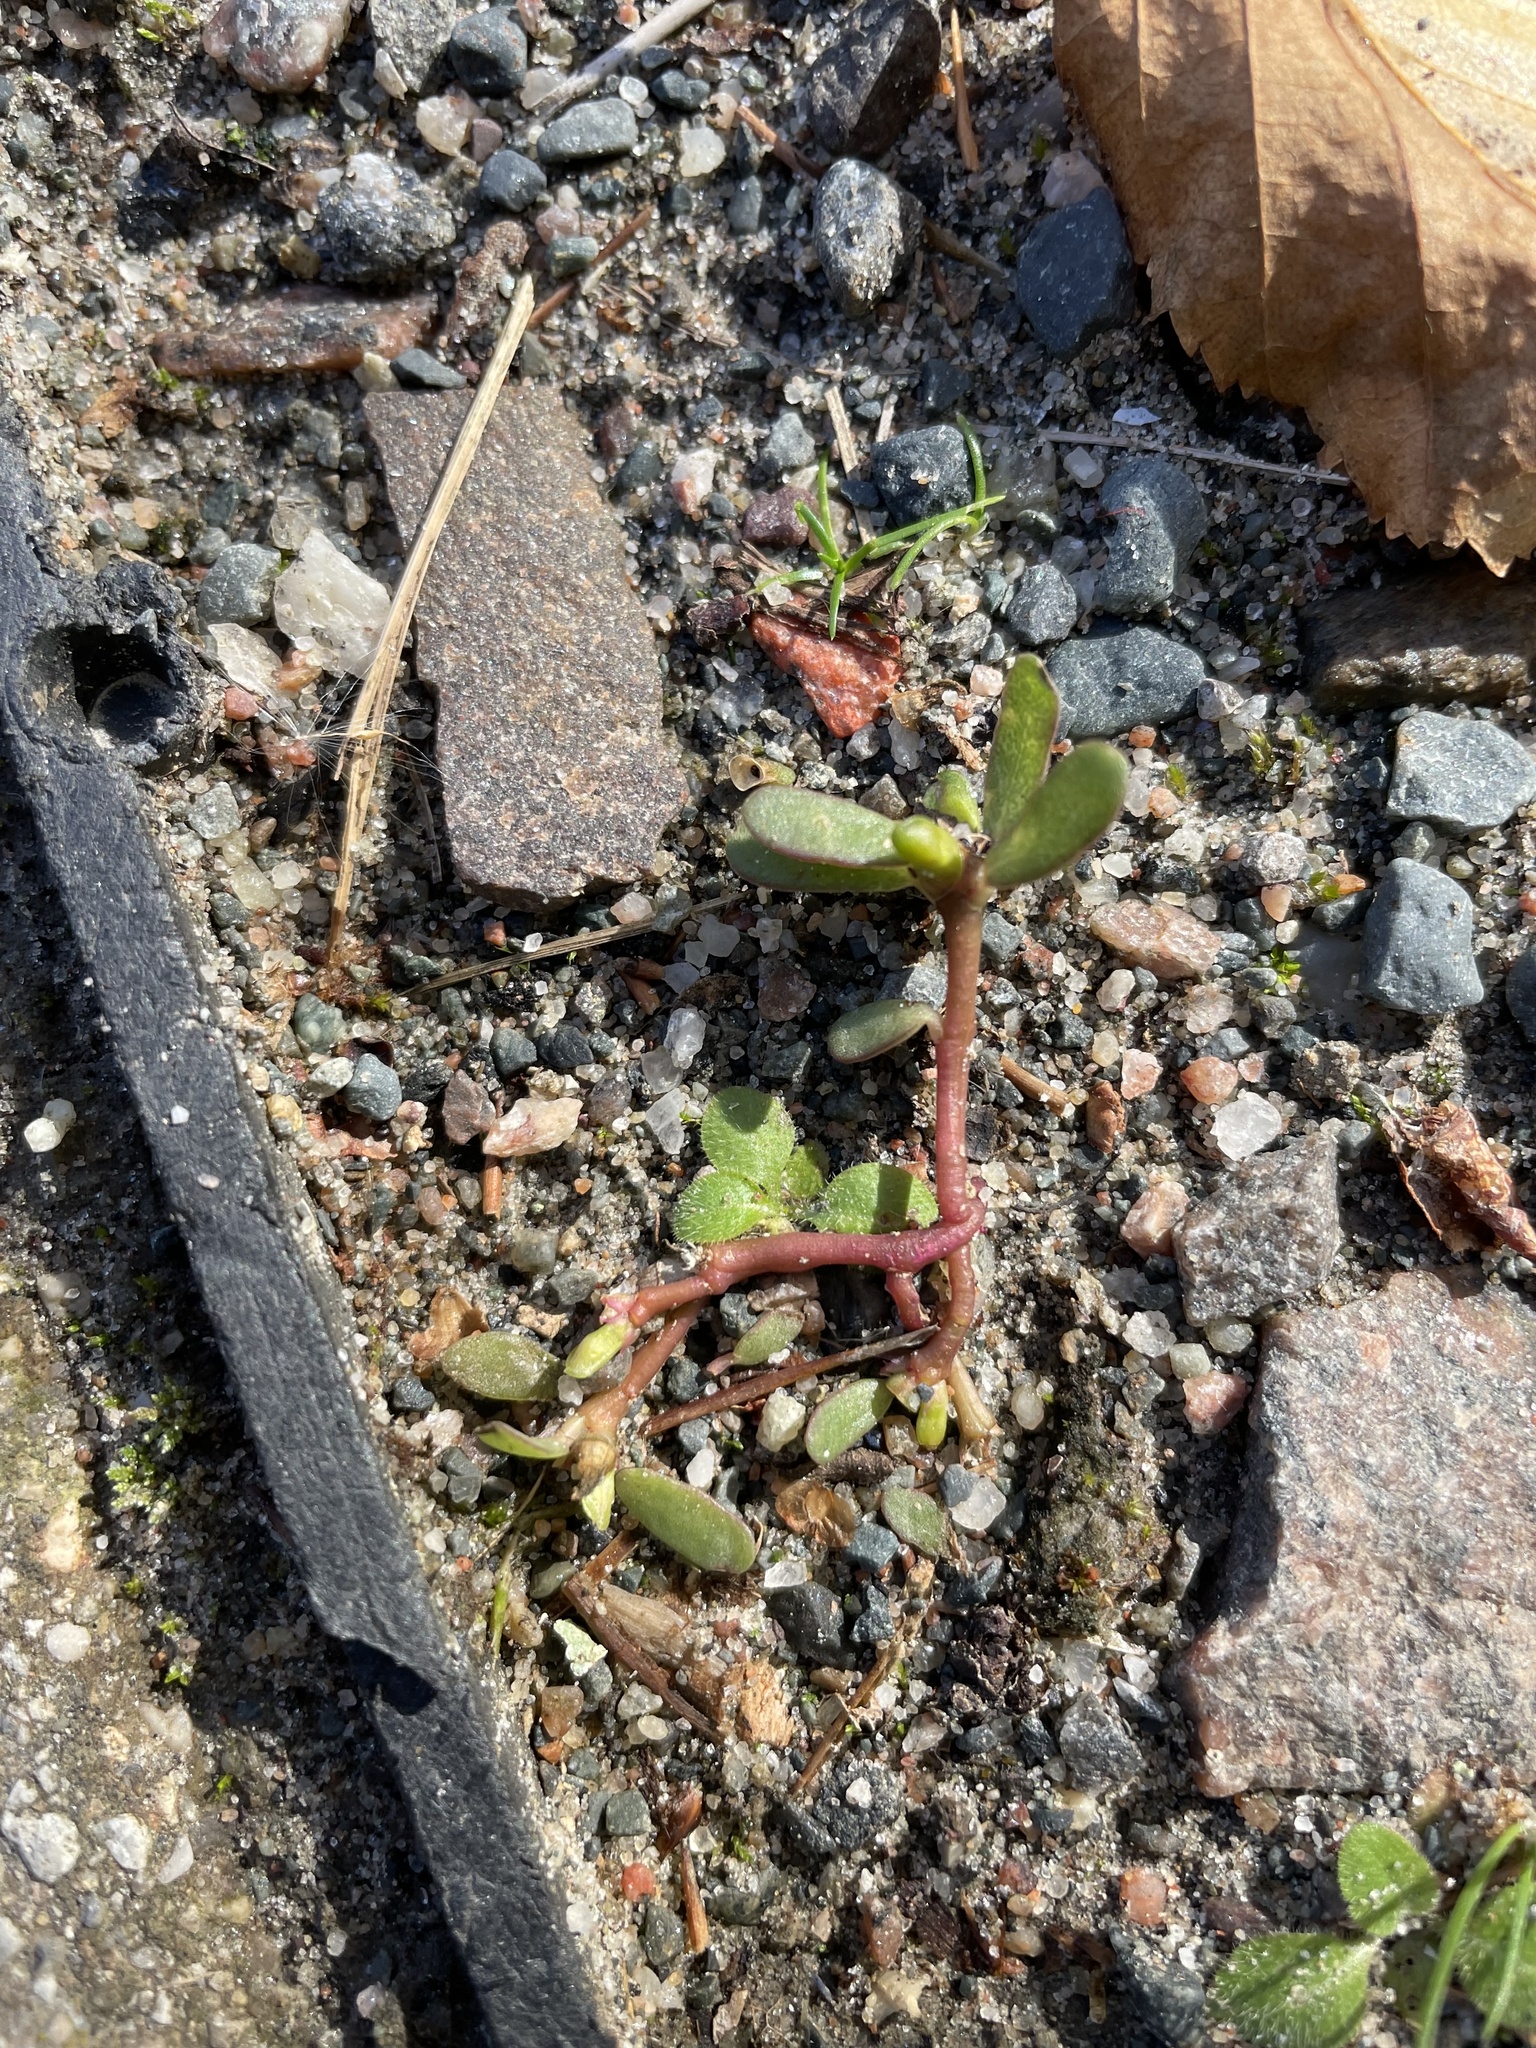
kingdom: Plantae
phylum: Tracheophyta
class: Magnoliopsida
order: Caryophyllales
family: Portulacaceae
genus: Portulaca
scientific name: Portulaca oleracea
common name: Common purslane
